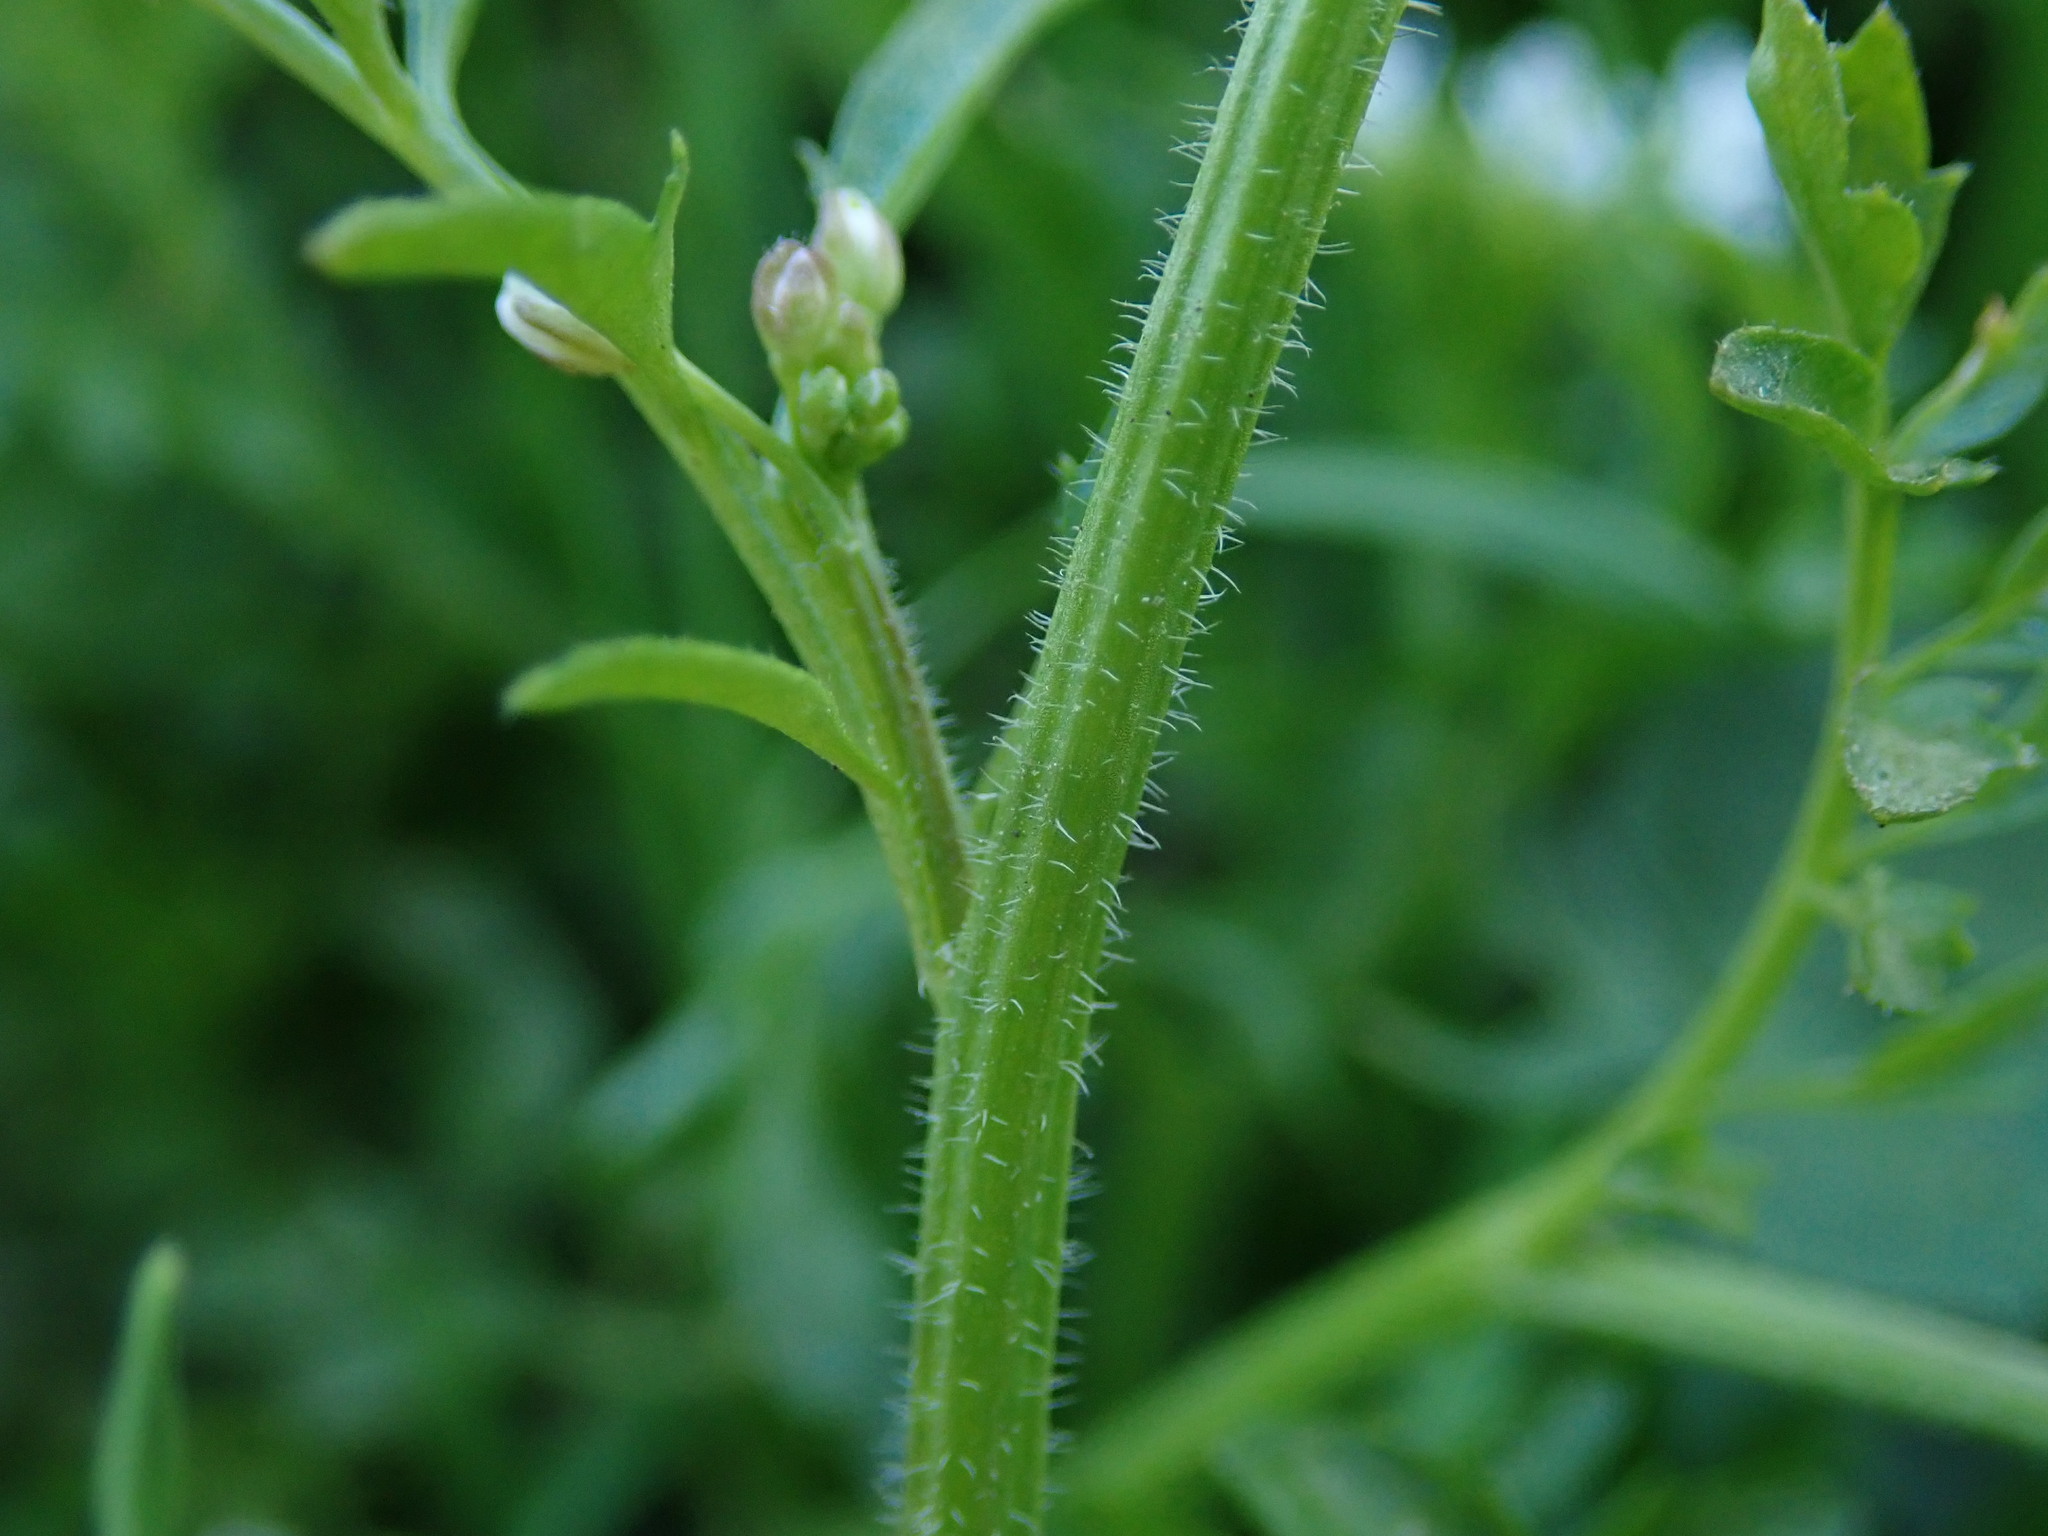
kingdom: Plantae
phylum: Tracheophyta
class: Magnoliopsida
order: Brassicales
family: Brassicaceae
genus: Cardamine
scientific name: Cardamine flexuosa
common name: Woodland bittercress
